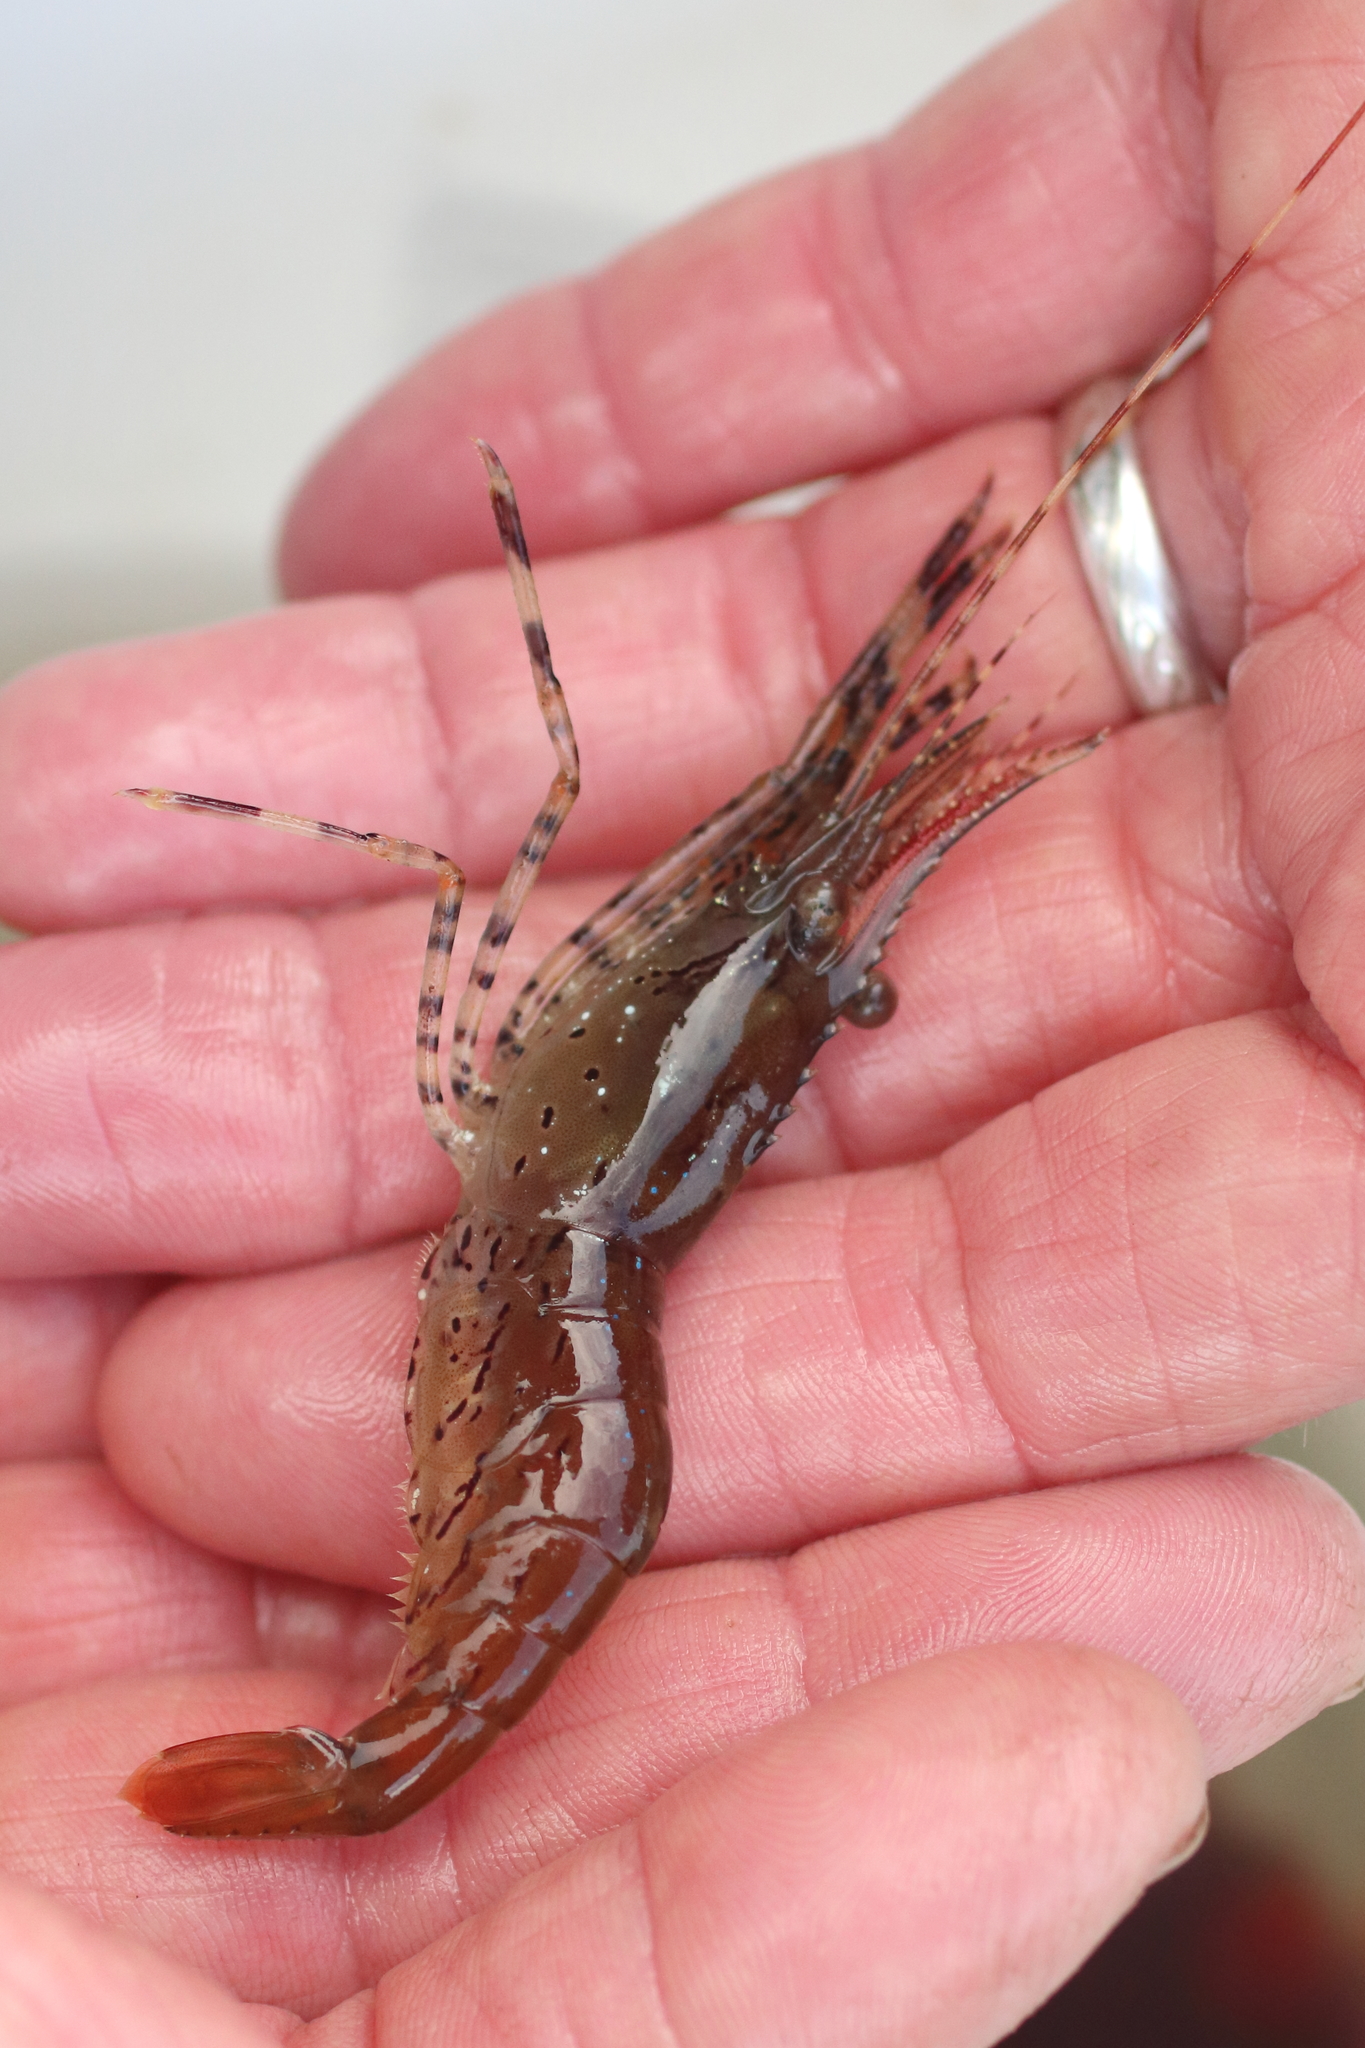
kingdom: Animalia
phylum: Arthropoda
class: Malacostraca
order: Decapoda
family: Pandalidae
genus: Pandalus
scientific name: Pandalus danae
